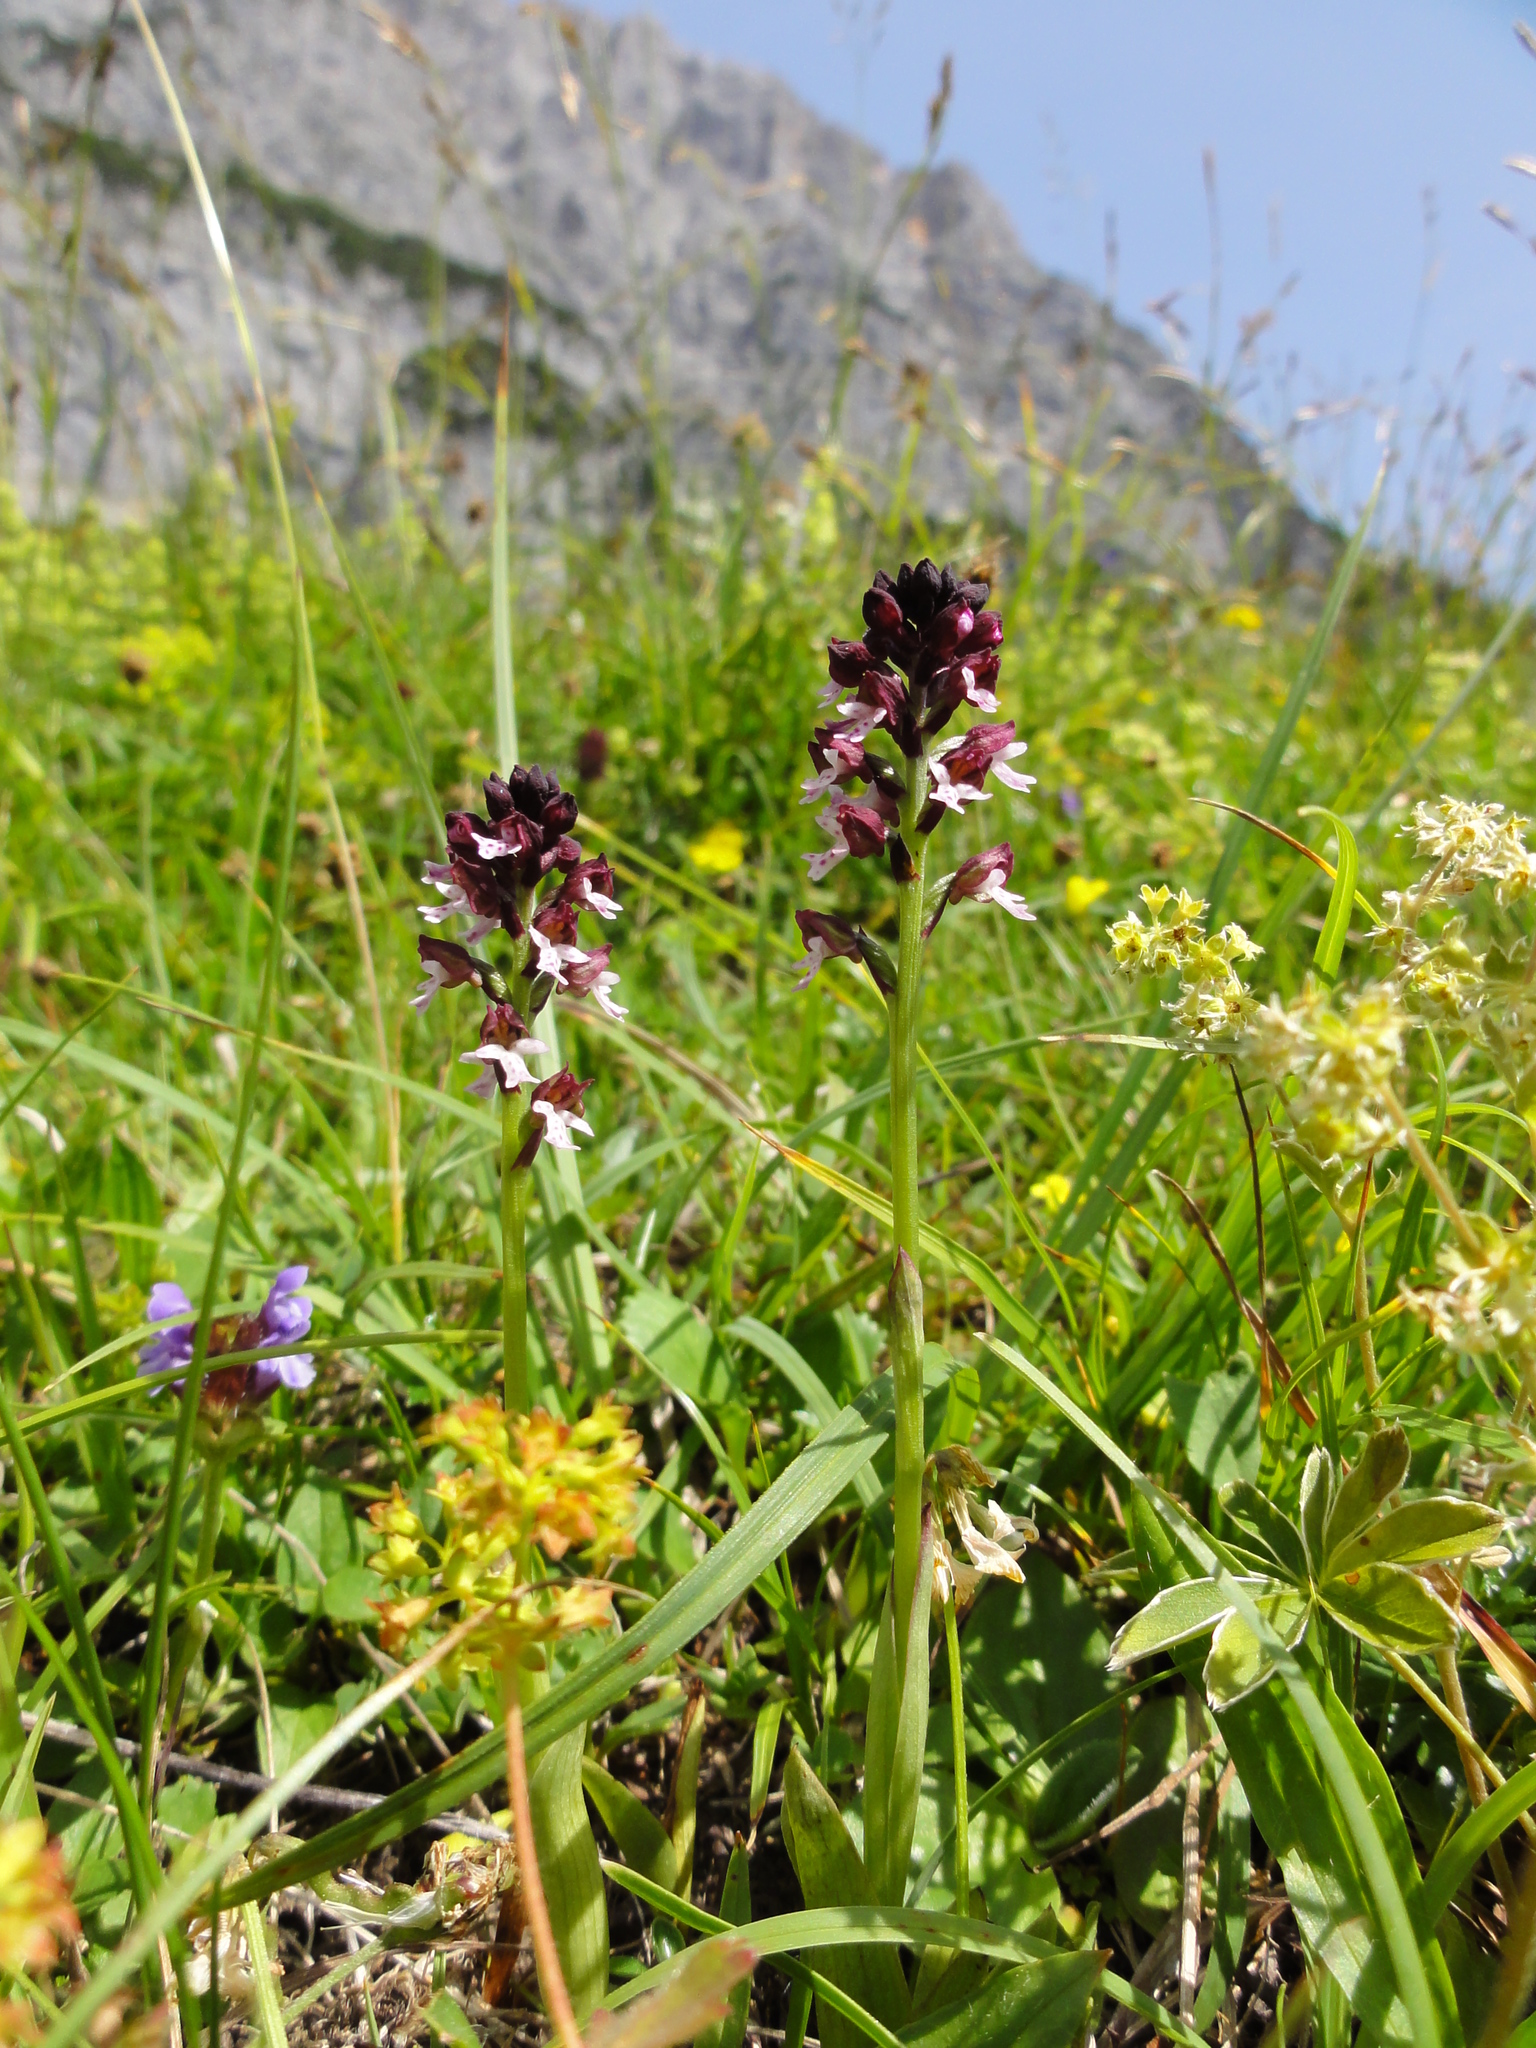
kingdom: Plantae
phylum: Tracheophyta
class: Liliopsida
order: Asparagales
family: Orchidaceae
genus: Neotinea
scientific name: Neotinea ustulata
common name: Burnt orchid
